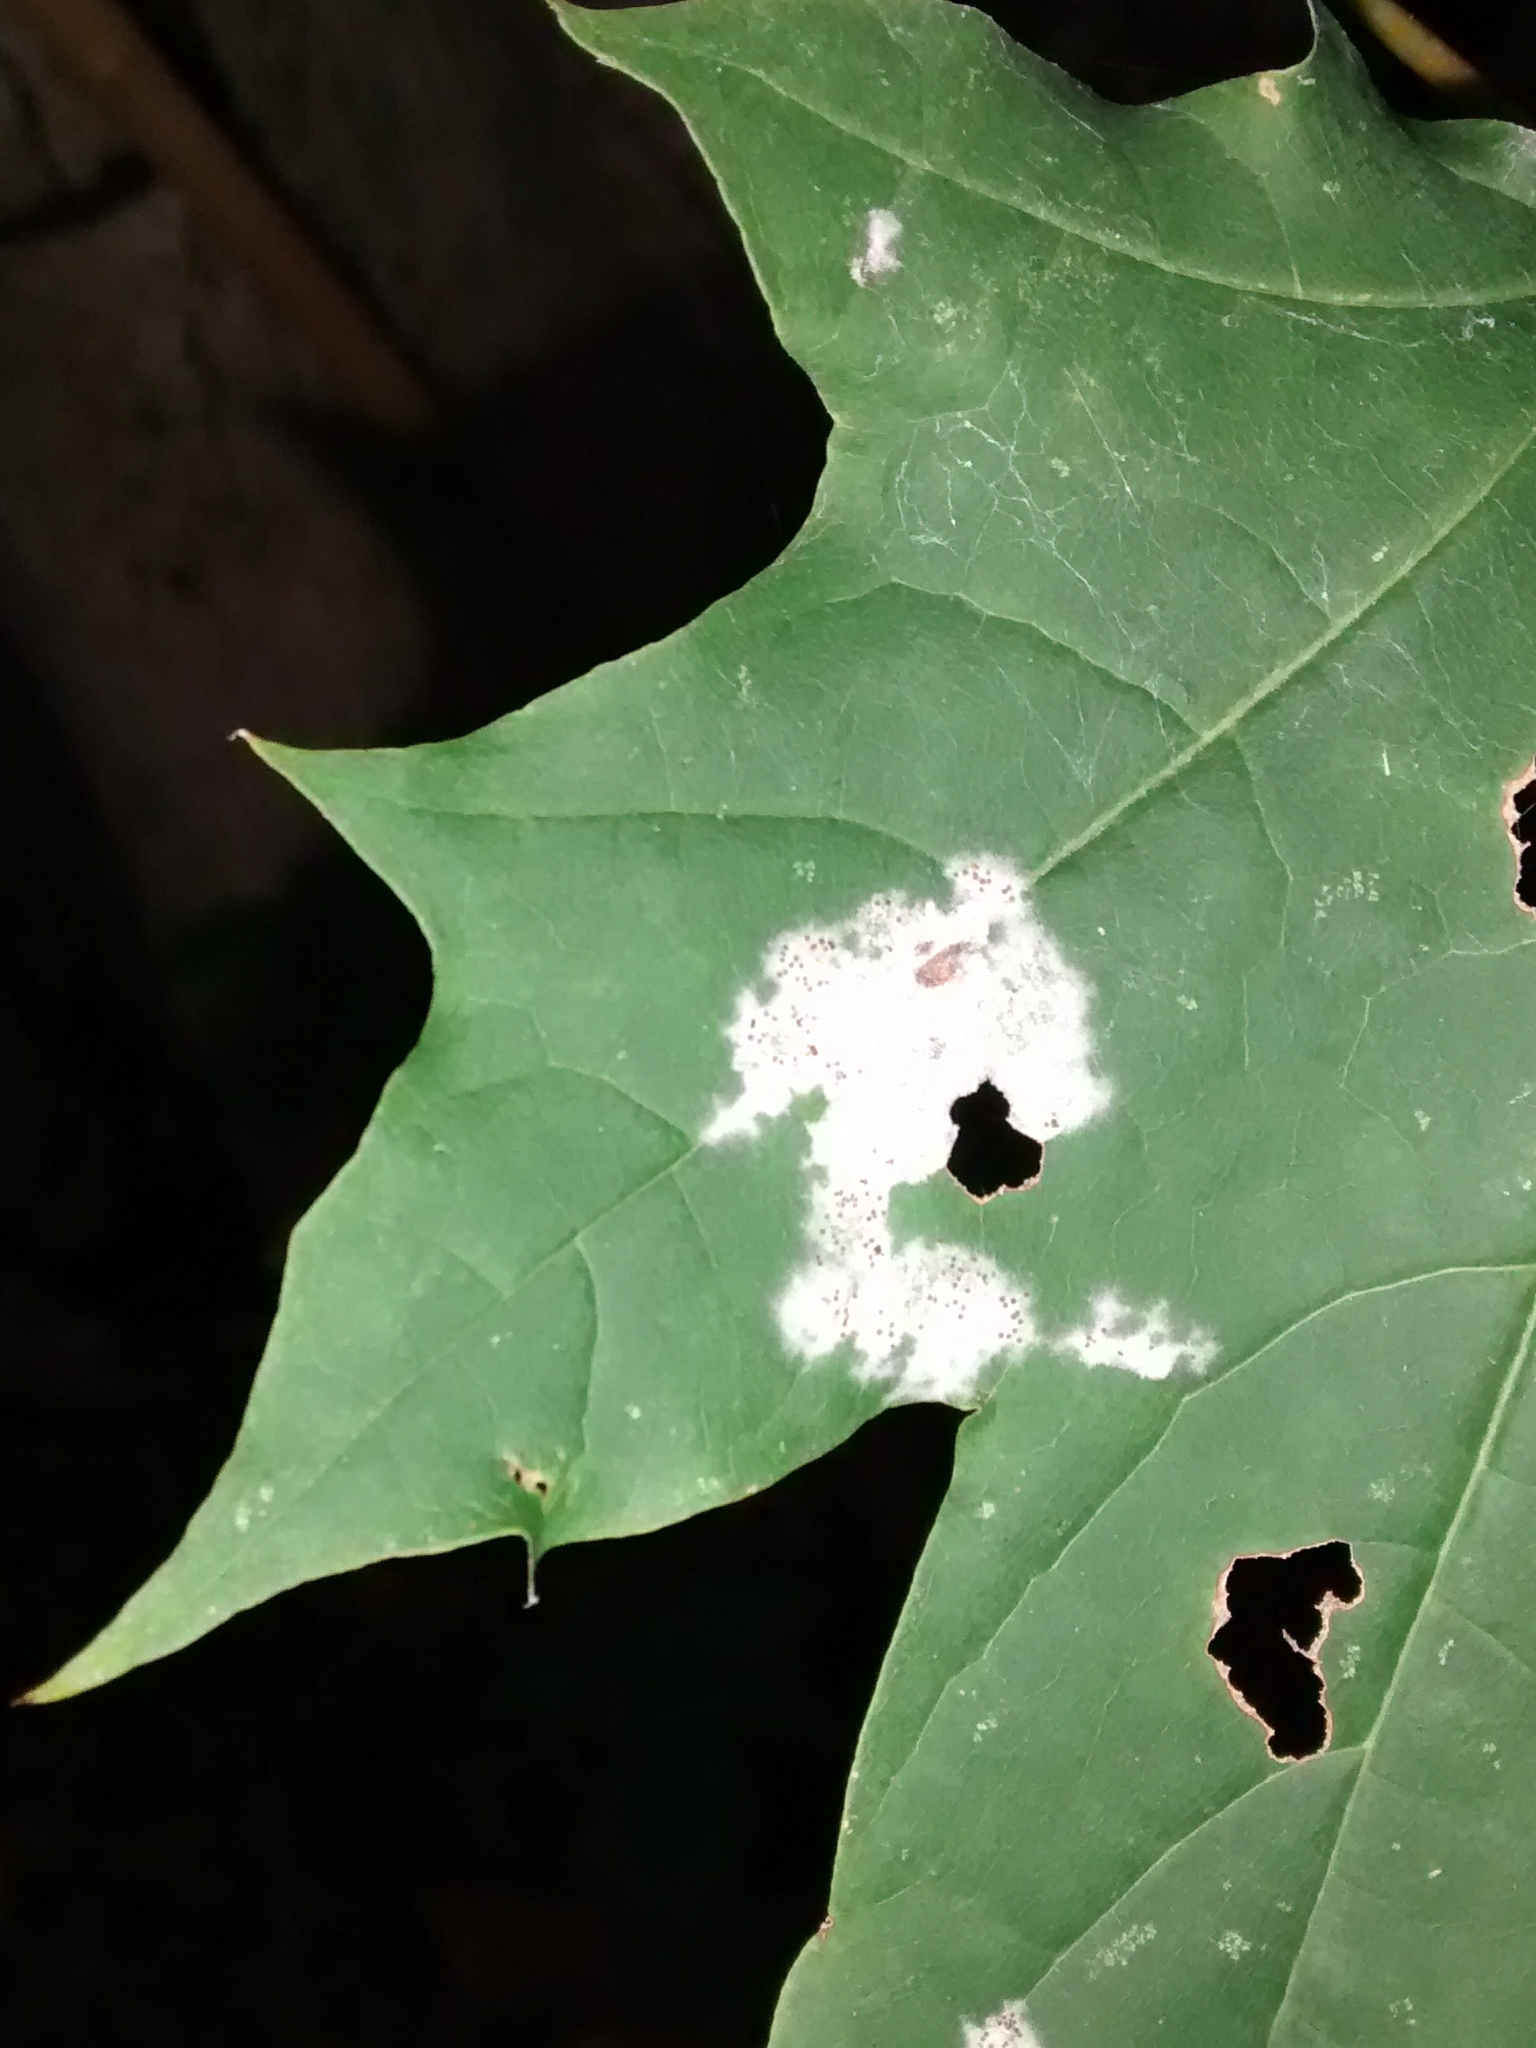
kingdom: Fungi
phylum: Ascomycota
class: Leotiomycetes
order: Helotiales
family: Erysiphaceae
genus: Sawadaea
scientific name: Sawadaea tulasnei
